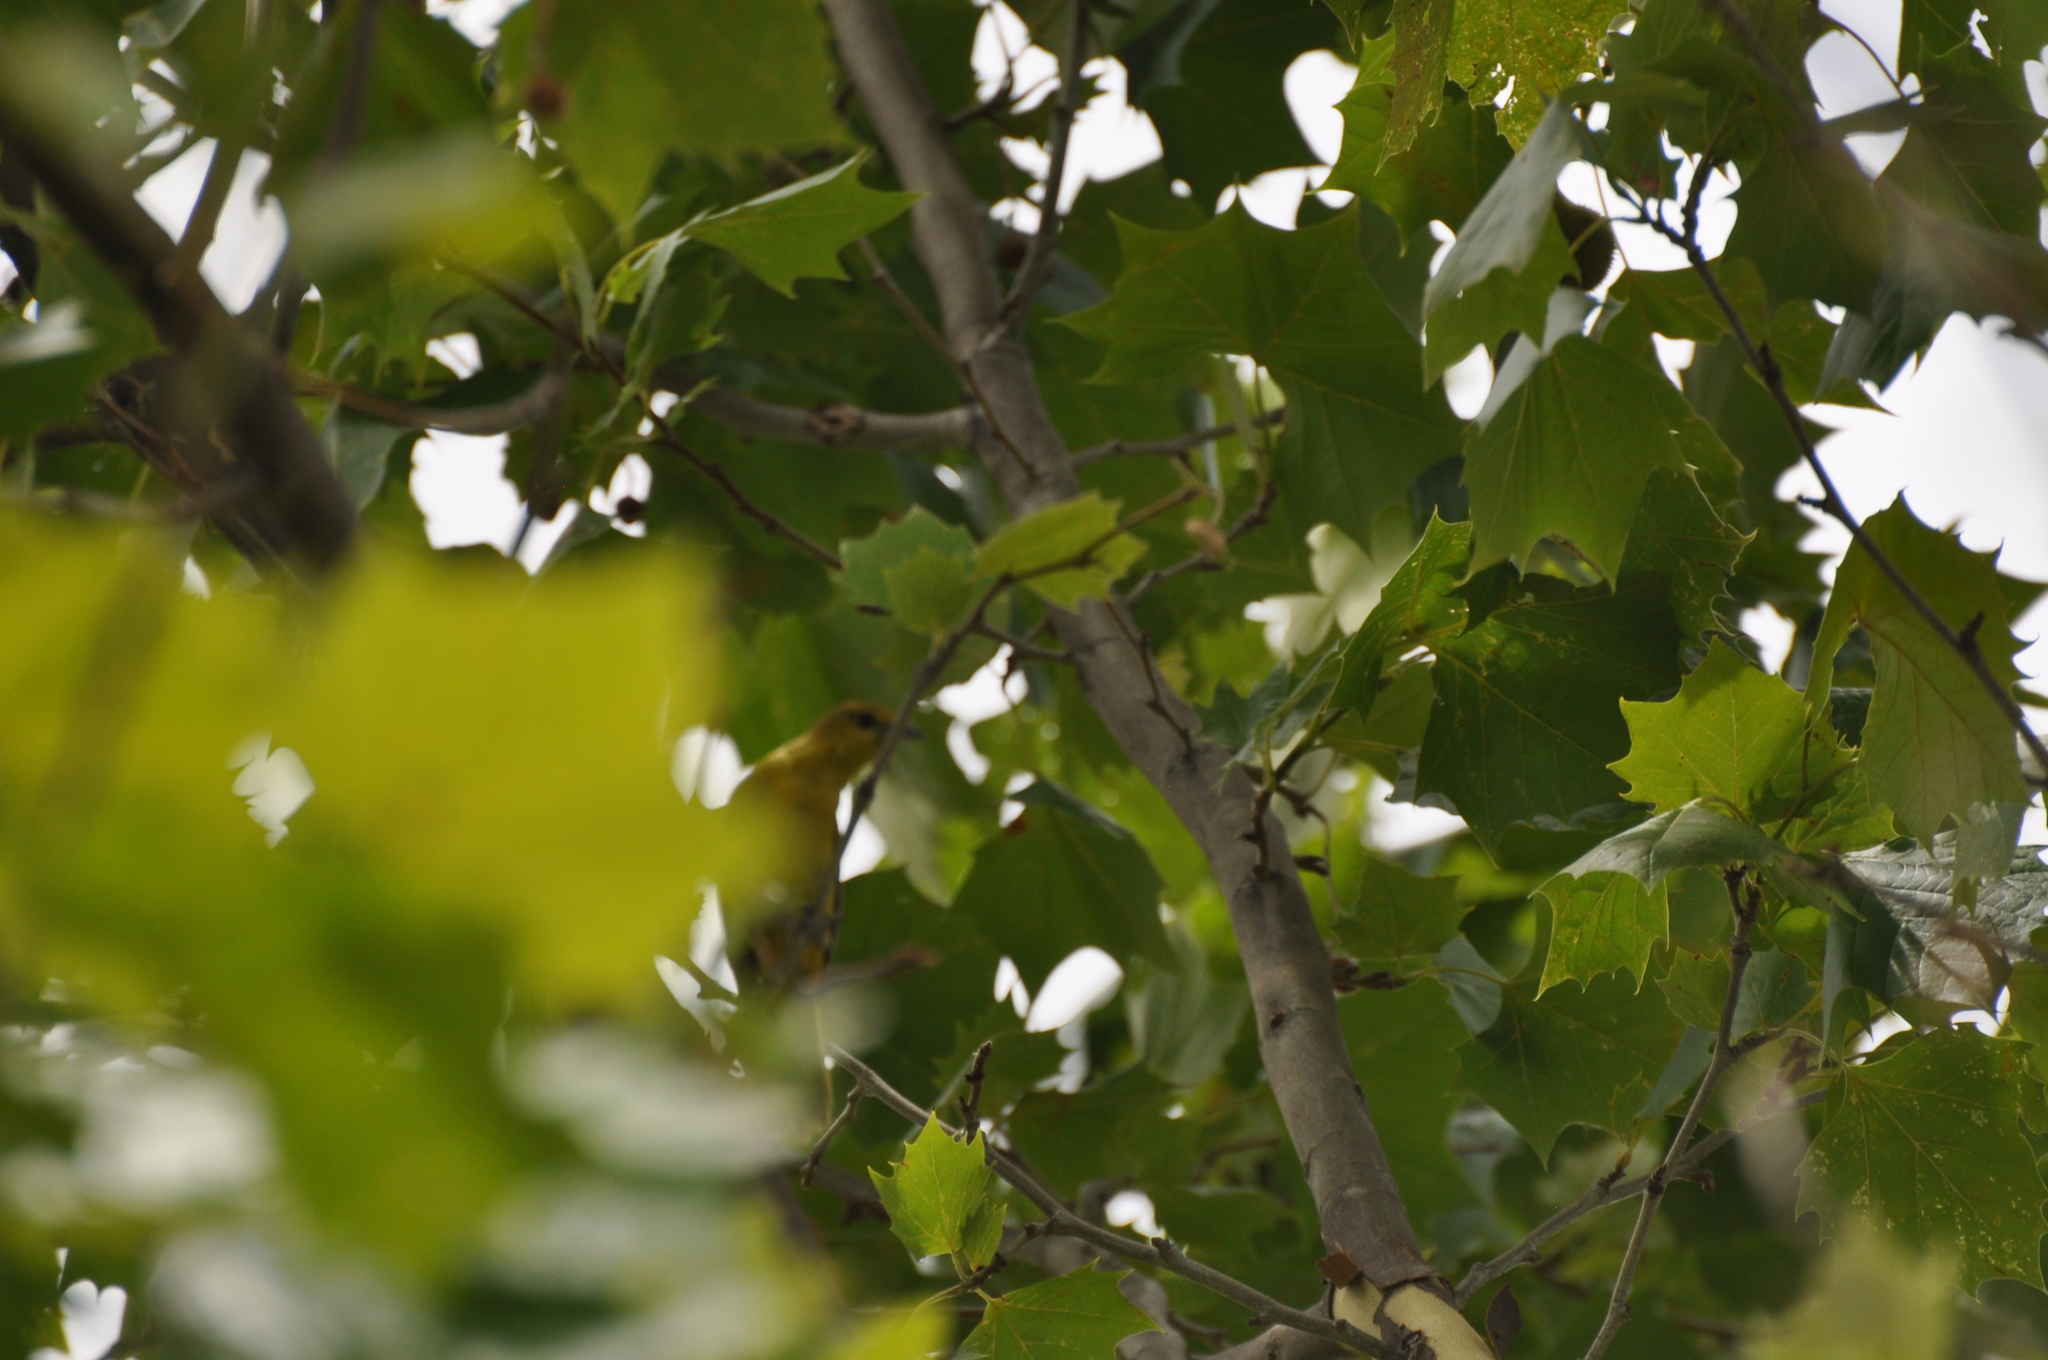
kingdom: Animalia
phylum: Chordata
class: Aves
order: Passeriformes
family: Icteridae
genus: Icterus
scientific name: Icterus spurius
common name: Orchard oriole
